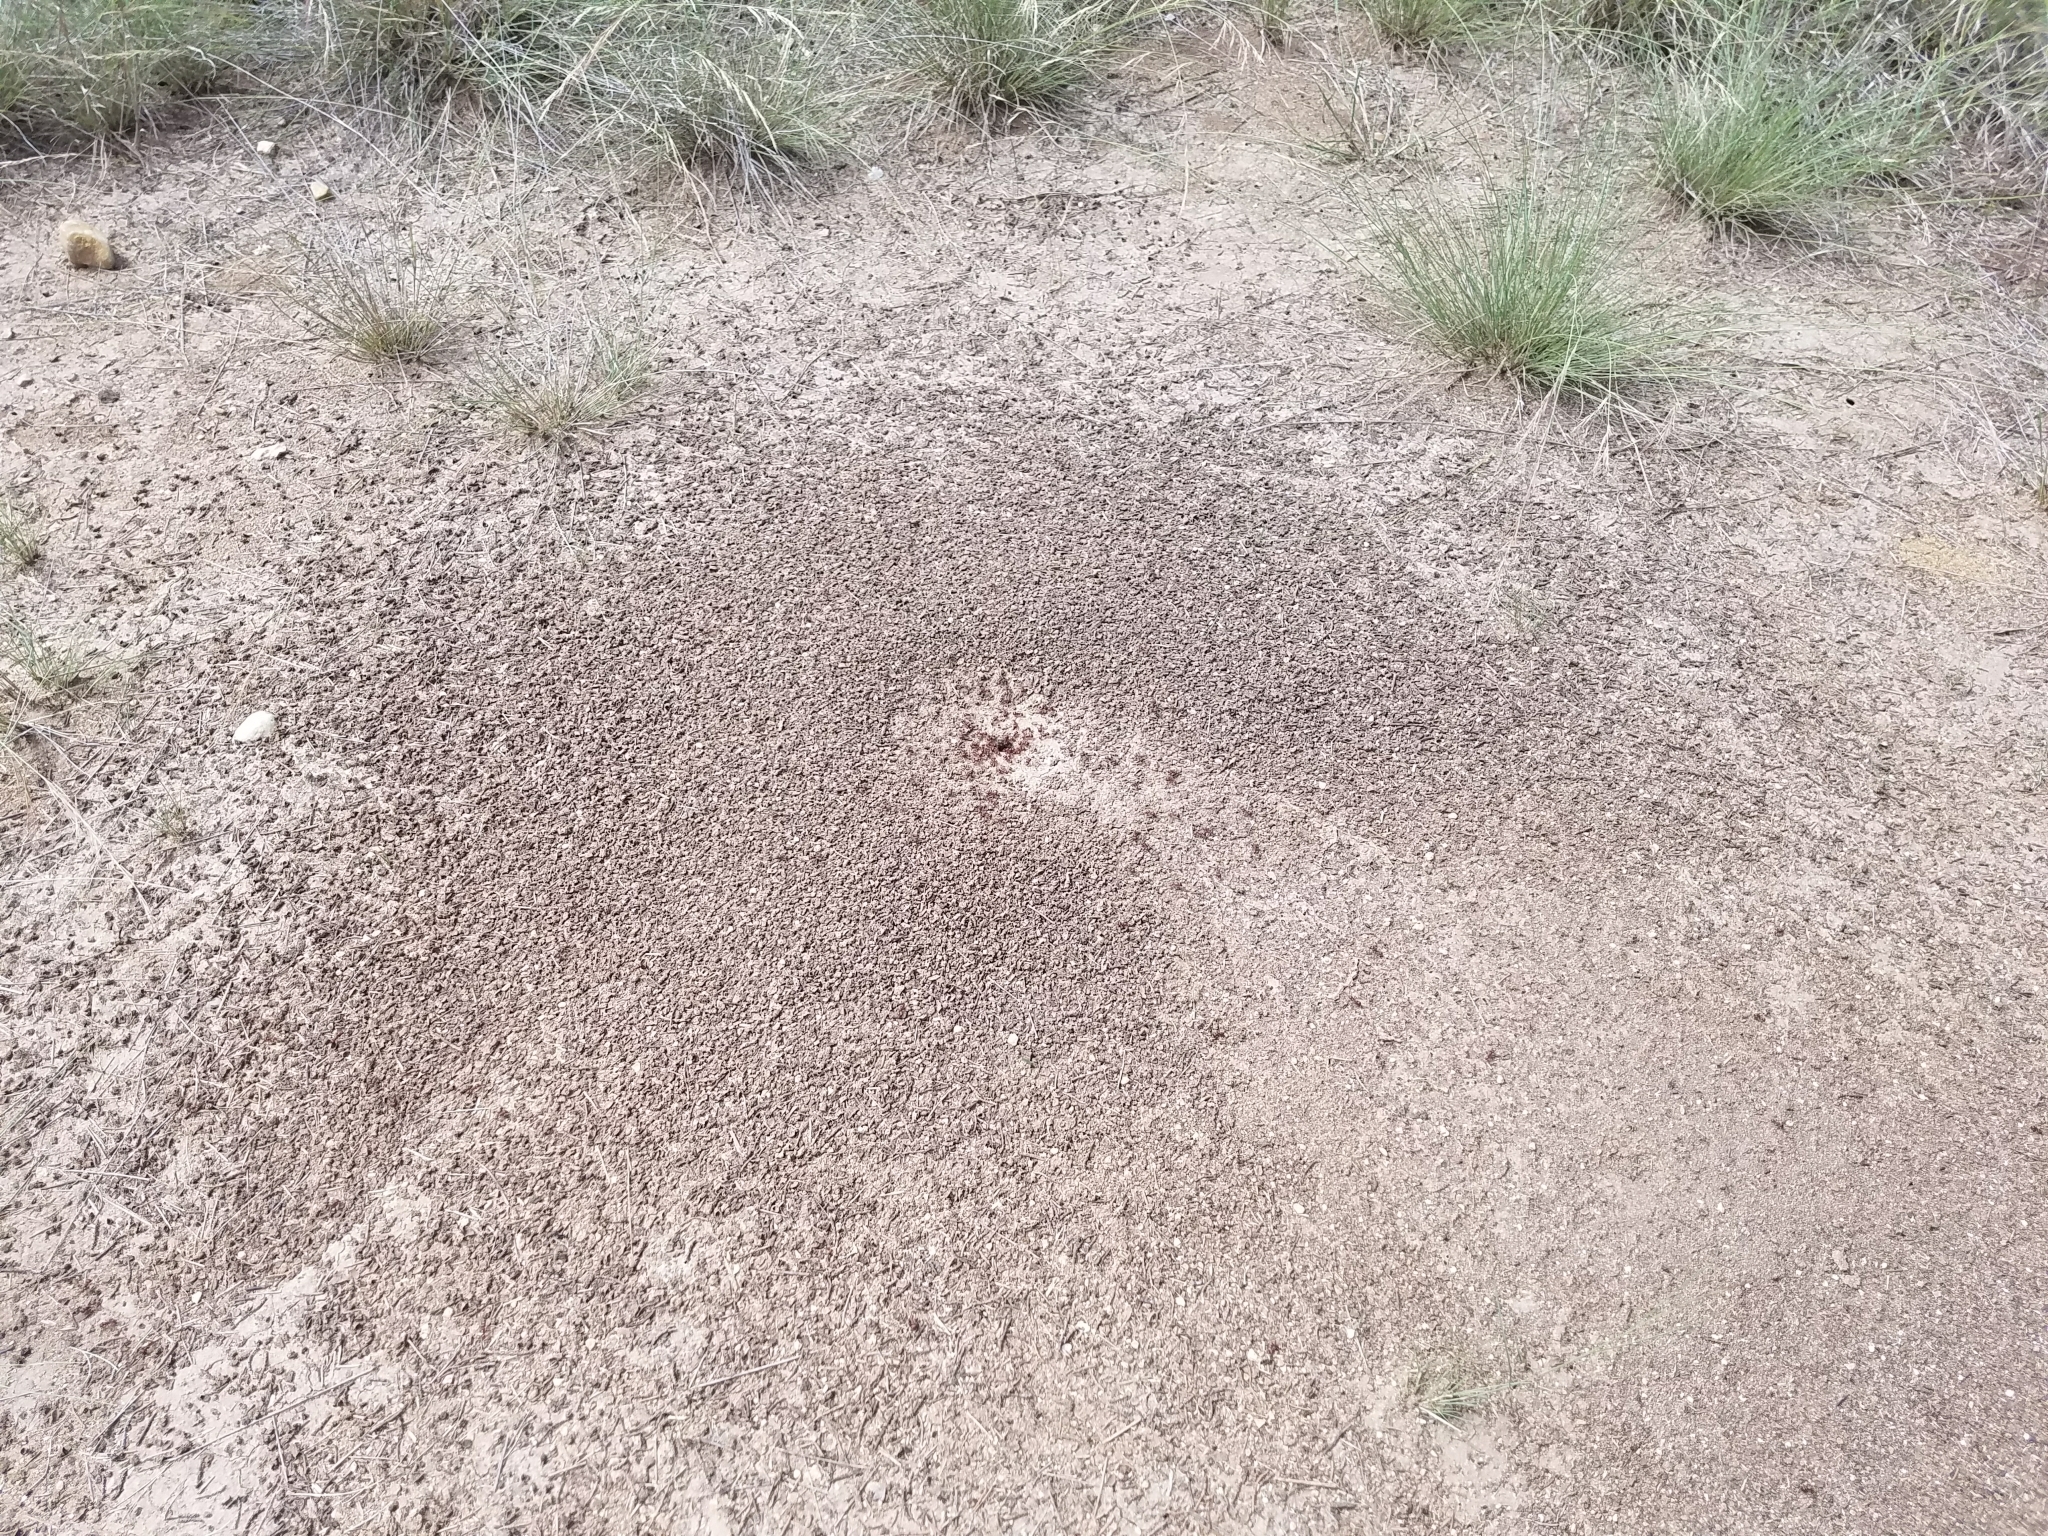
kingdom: Animalia
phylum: Arthropoda
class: Insecta
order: Hymenoptera
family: Formicidae
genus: Pogonomyrmex
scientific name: Pogonomyrmex barbatus
